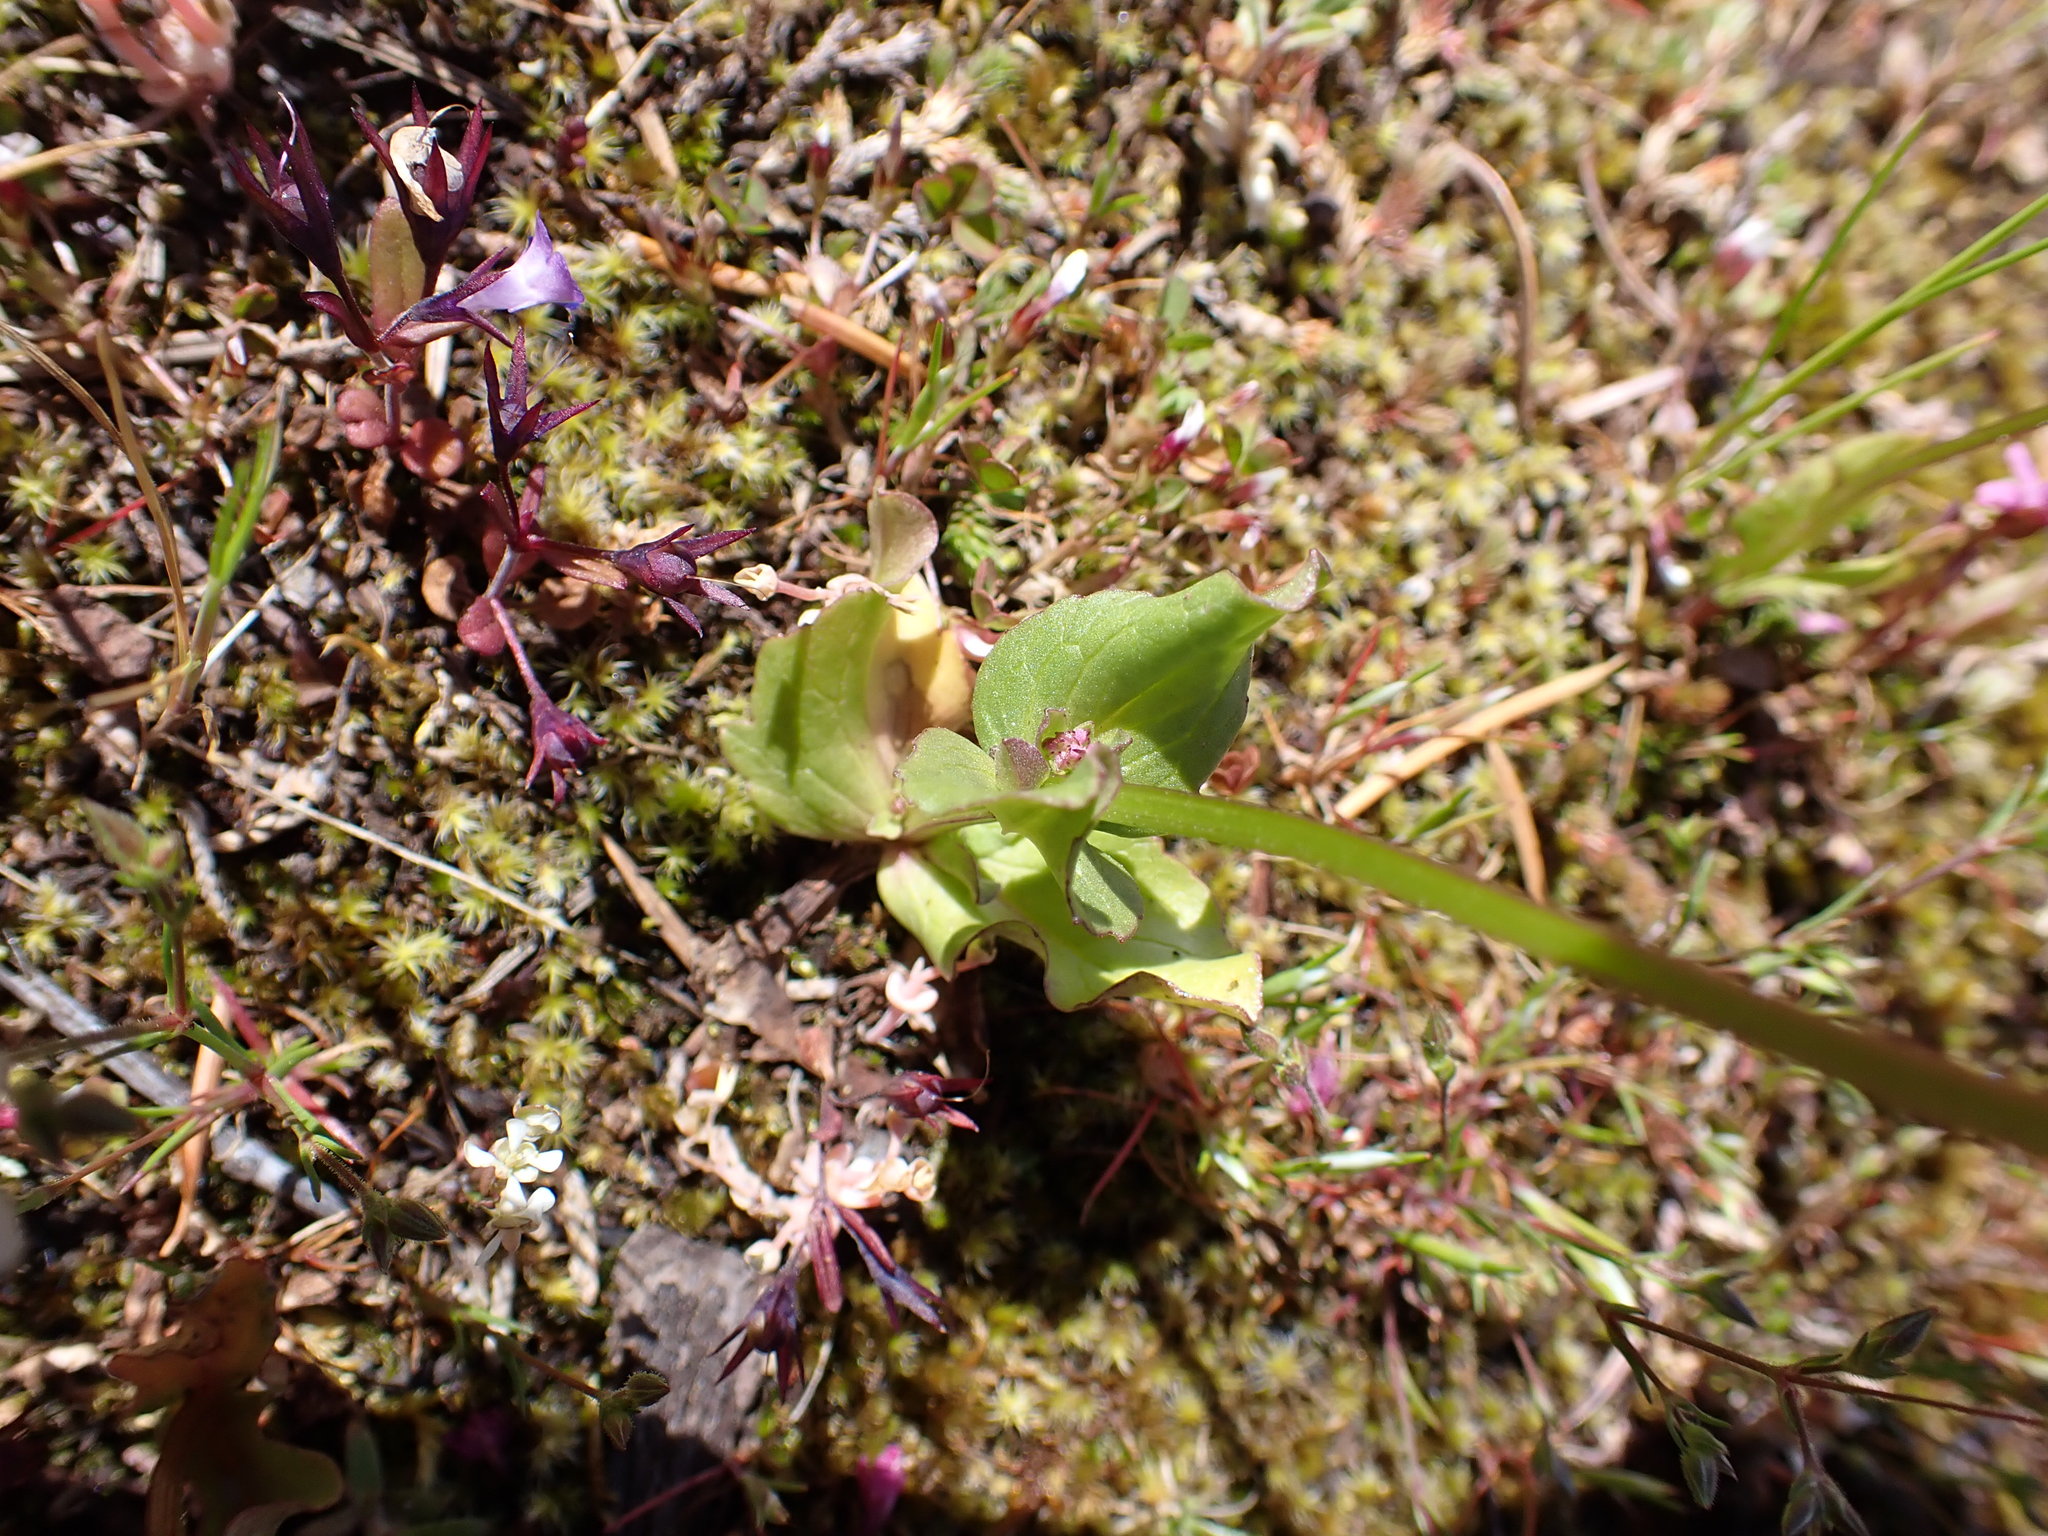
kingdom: Plantae
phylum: Tracheophyta
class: Magnoliopsida
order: Dipsacales
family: Caprifoliaceae
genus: Plectritis
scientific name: Plectritis congesta
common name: Pink plectritis
